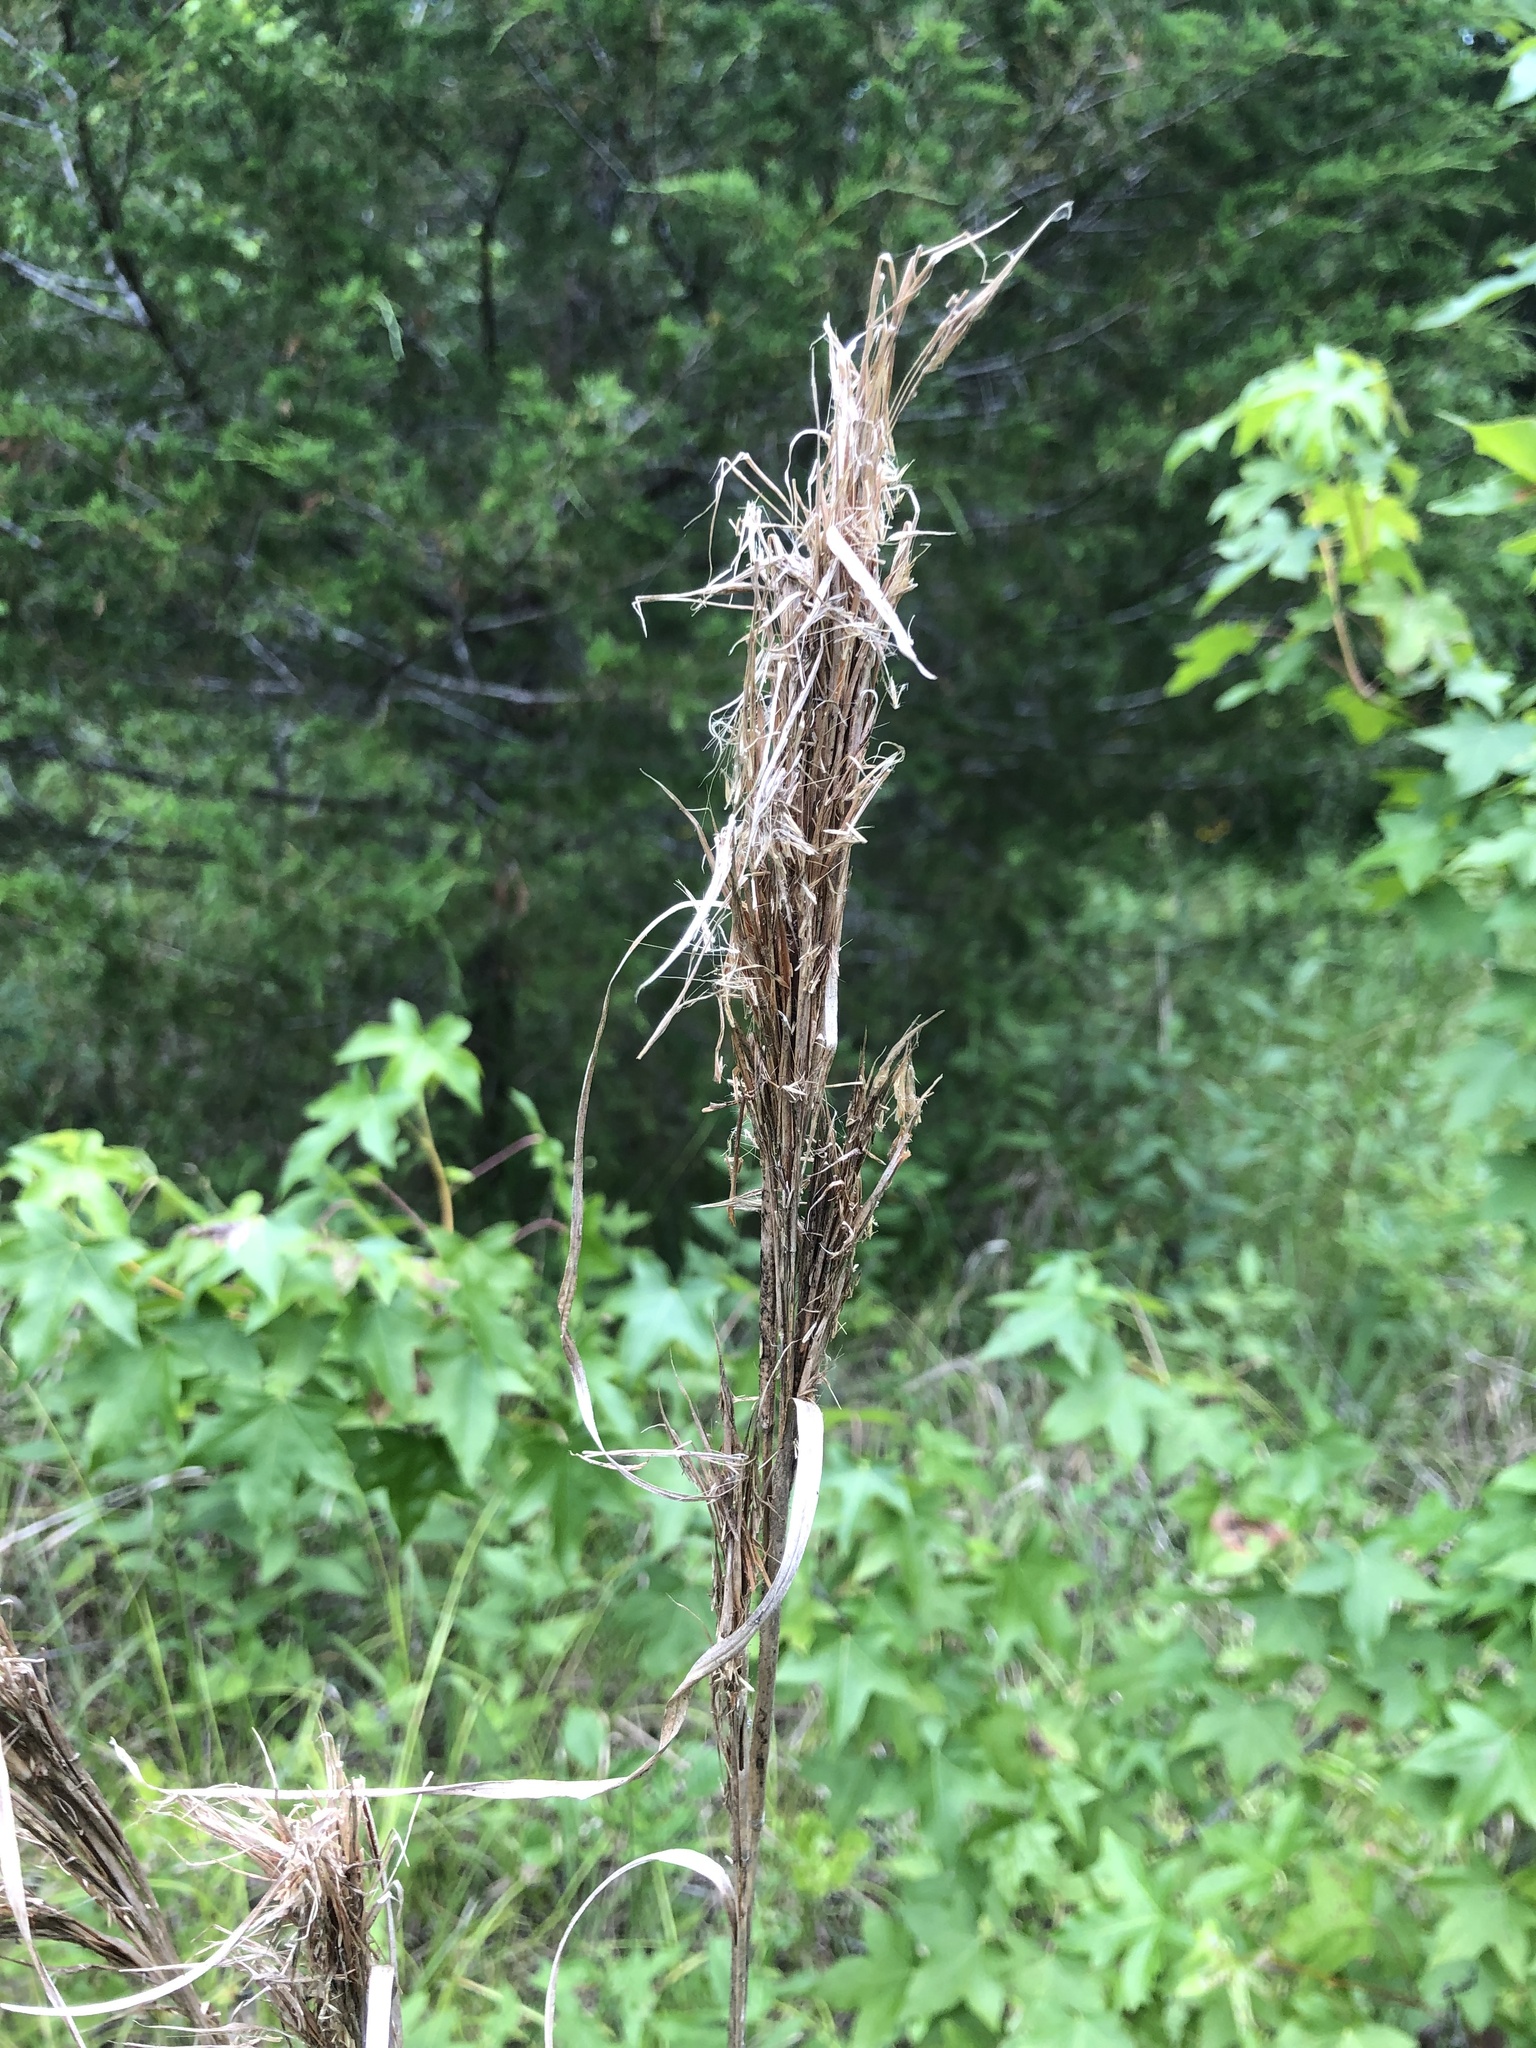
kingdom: Plantae
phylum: Tracheophyta
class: Liliopsida
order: Poales
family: Poaceae
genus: Andropogon
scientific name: Andropogon tenuispatheus
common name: Bushy bluestem
